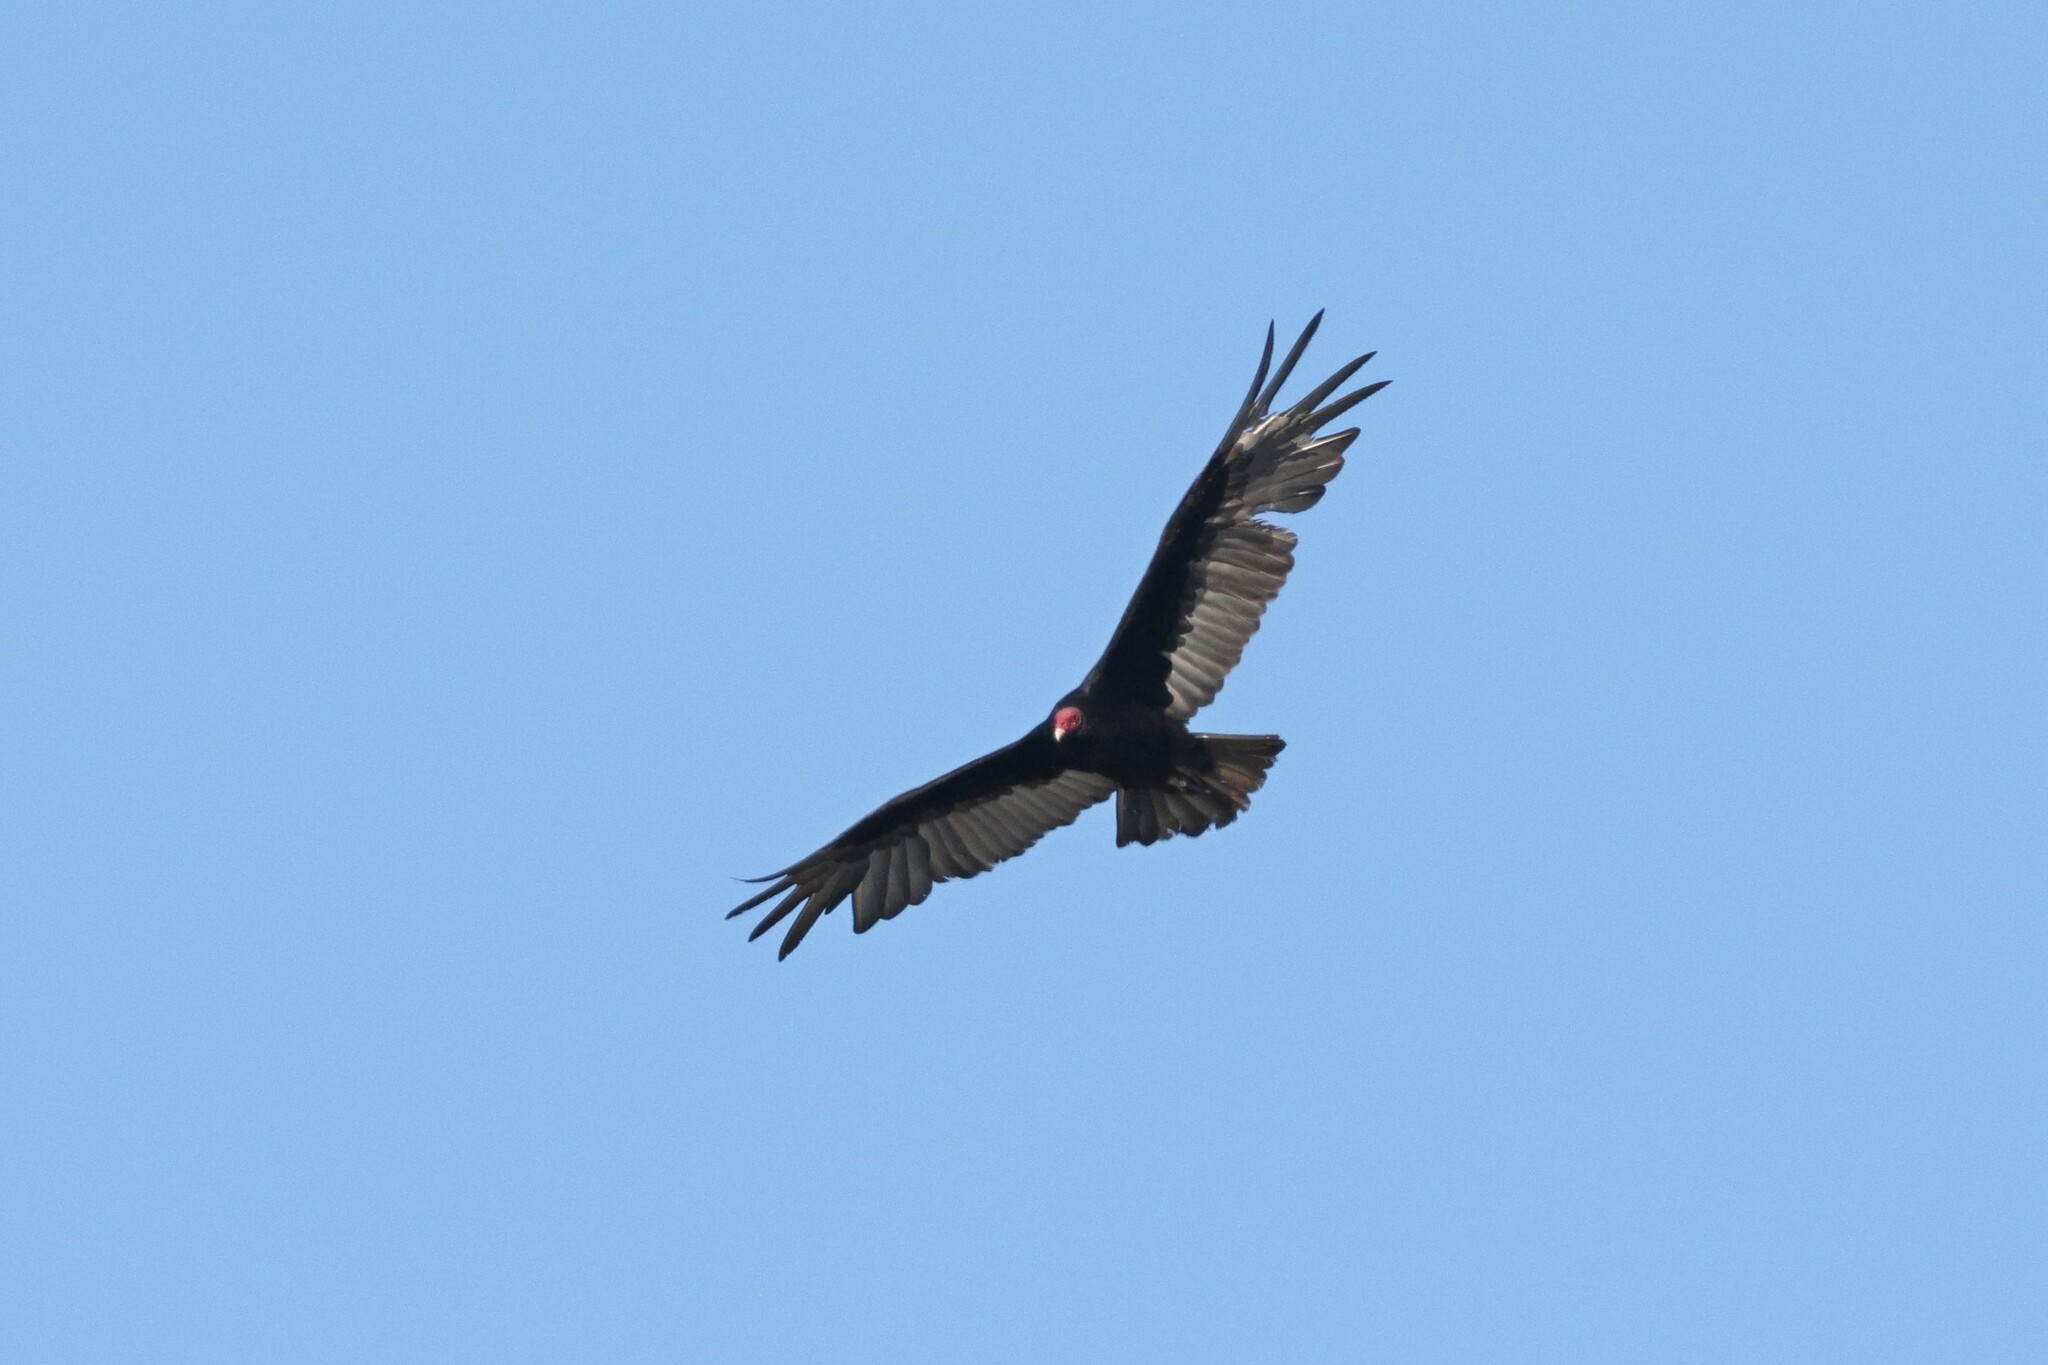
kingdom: Animalia
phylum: Chordata
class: Aves
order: Accipitriformes
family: Cathartidae
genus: Cathartes
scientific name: Cathartes aura
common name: Turkey vulture
